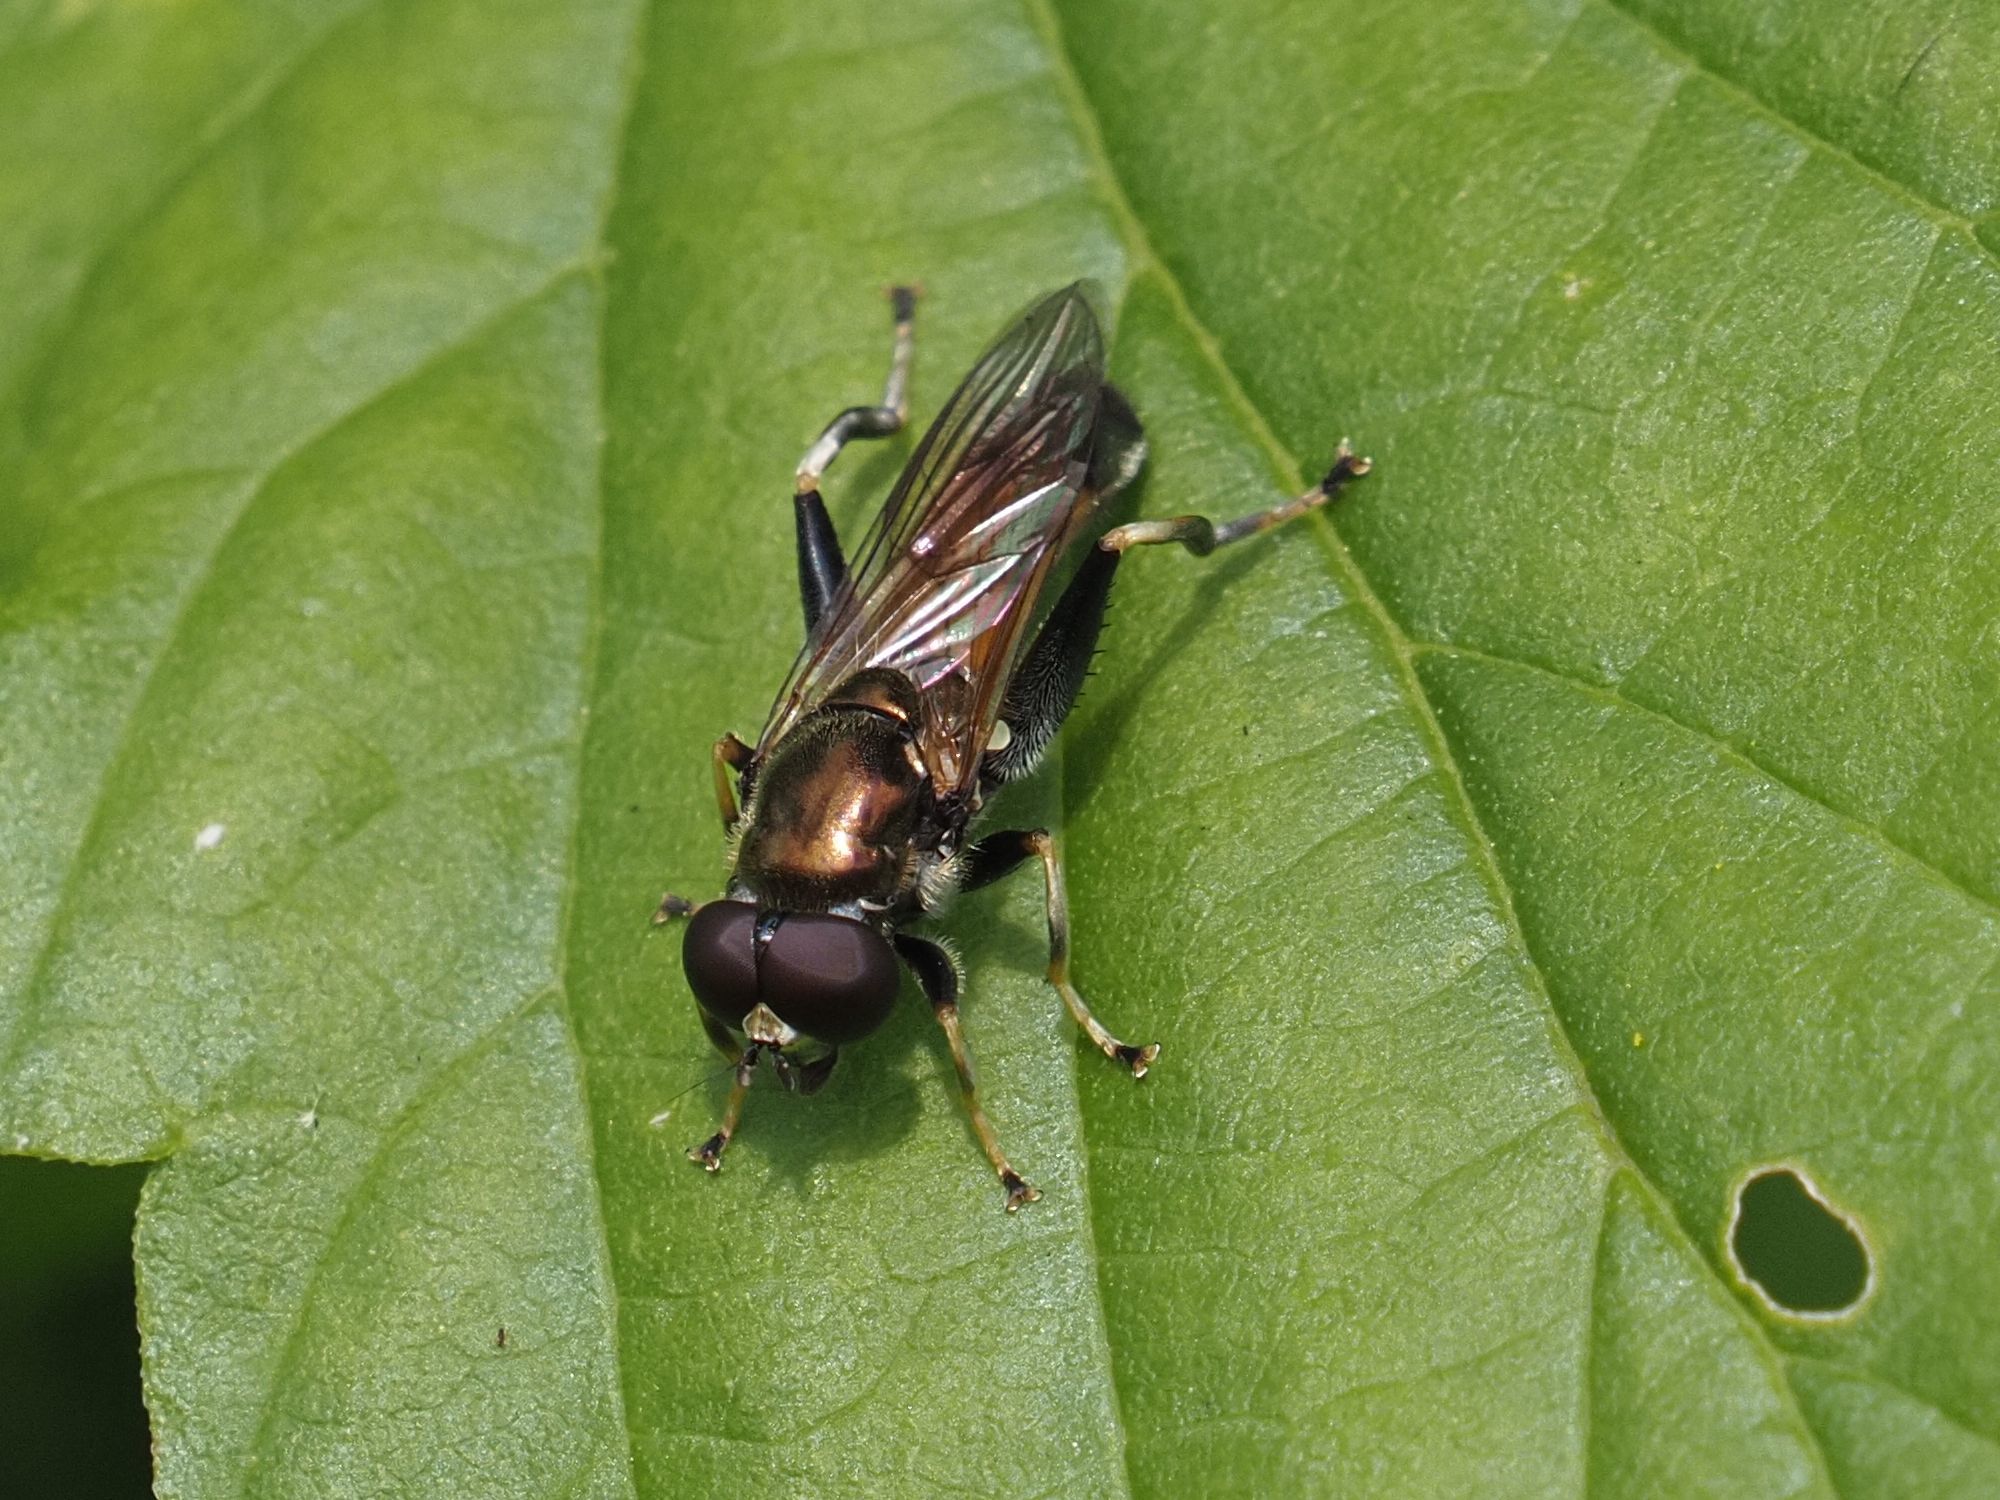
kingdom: Animalia
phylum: Arthropoda
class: Insecta
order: Diptera
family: Syrphidae
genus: Xylota
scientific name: Xylota segnis
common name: Brown-toed forest fly
